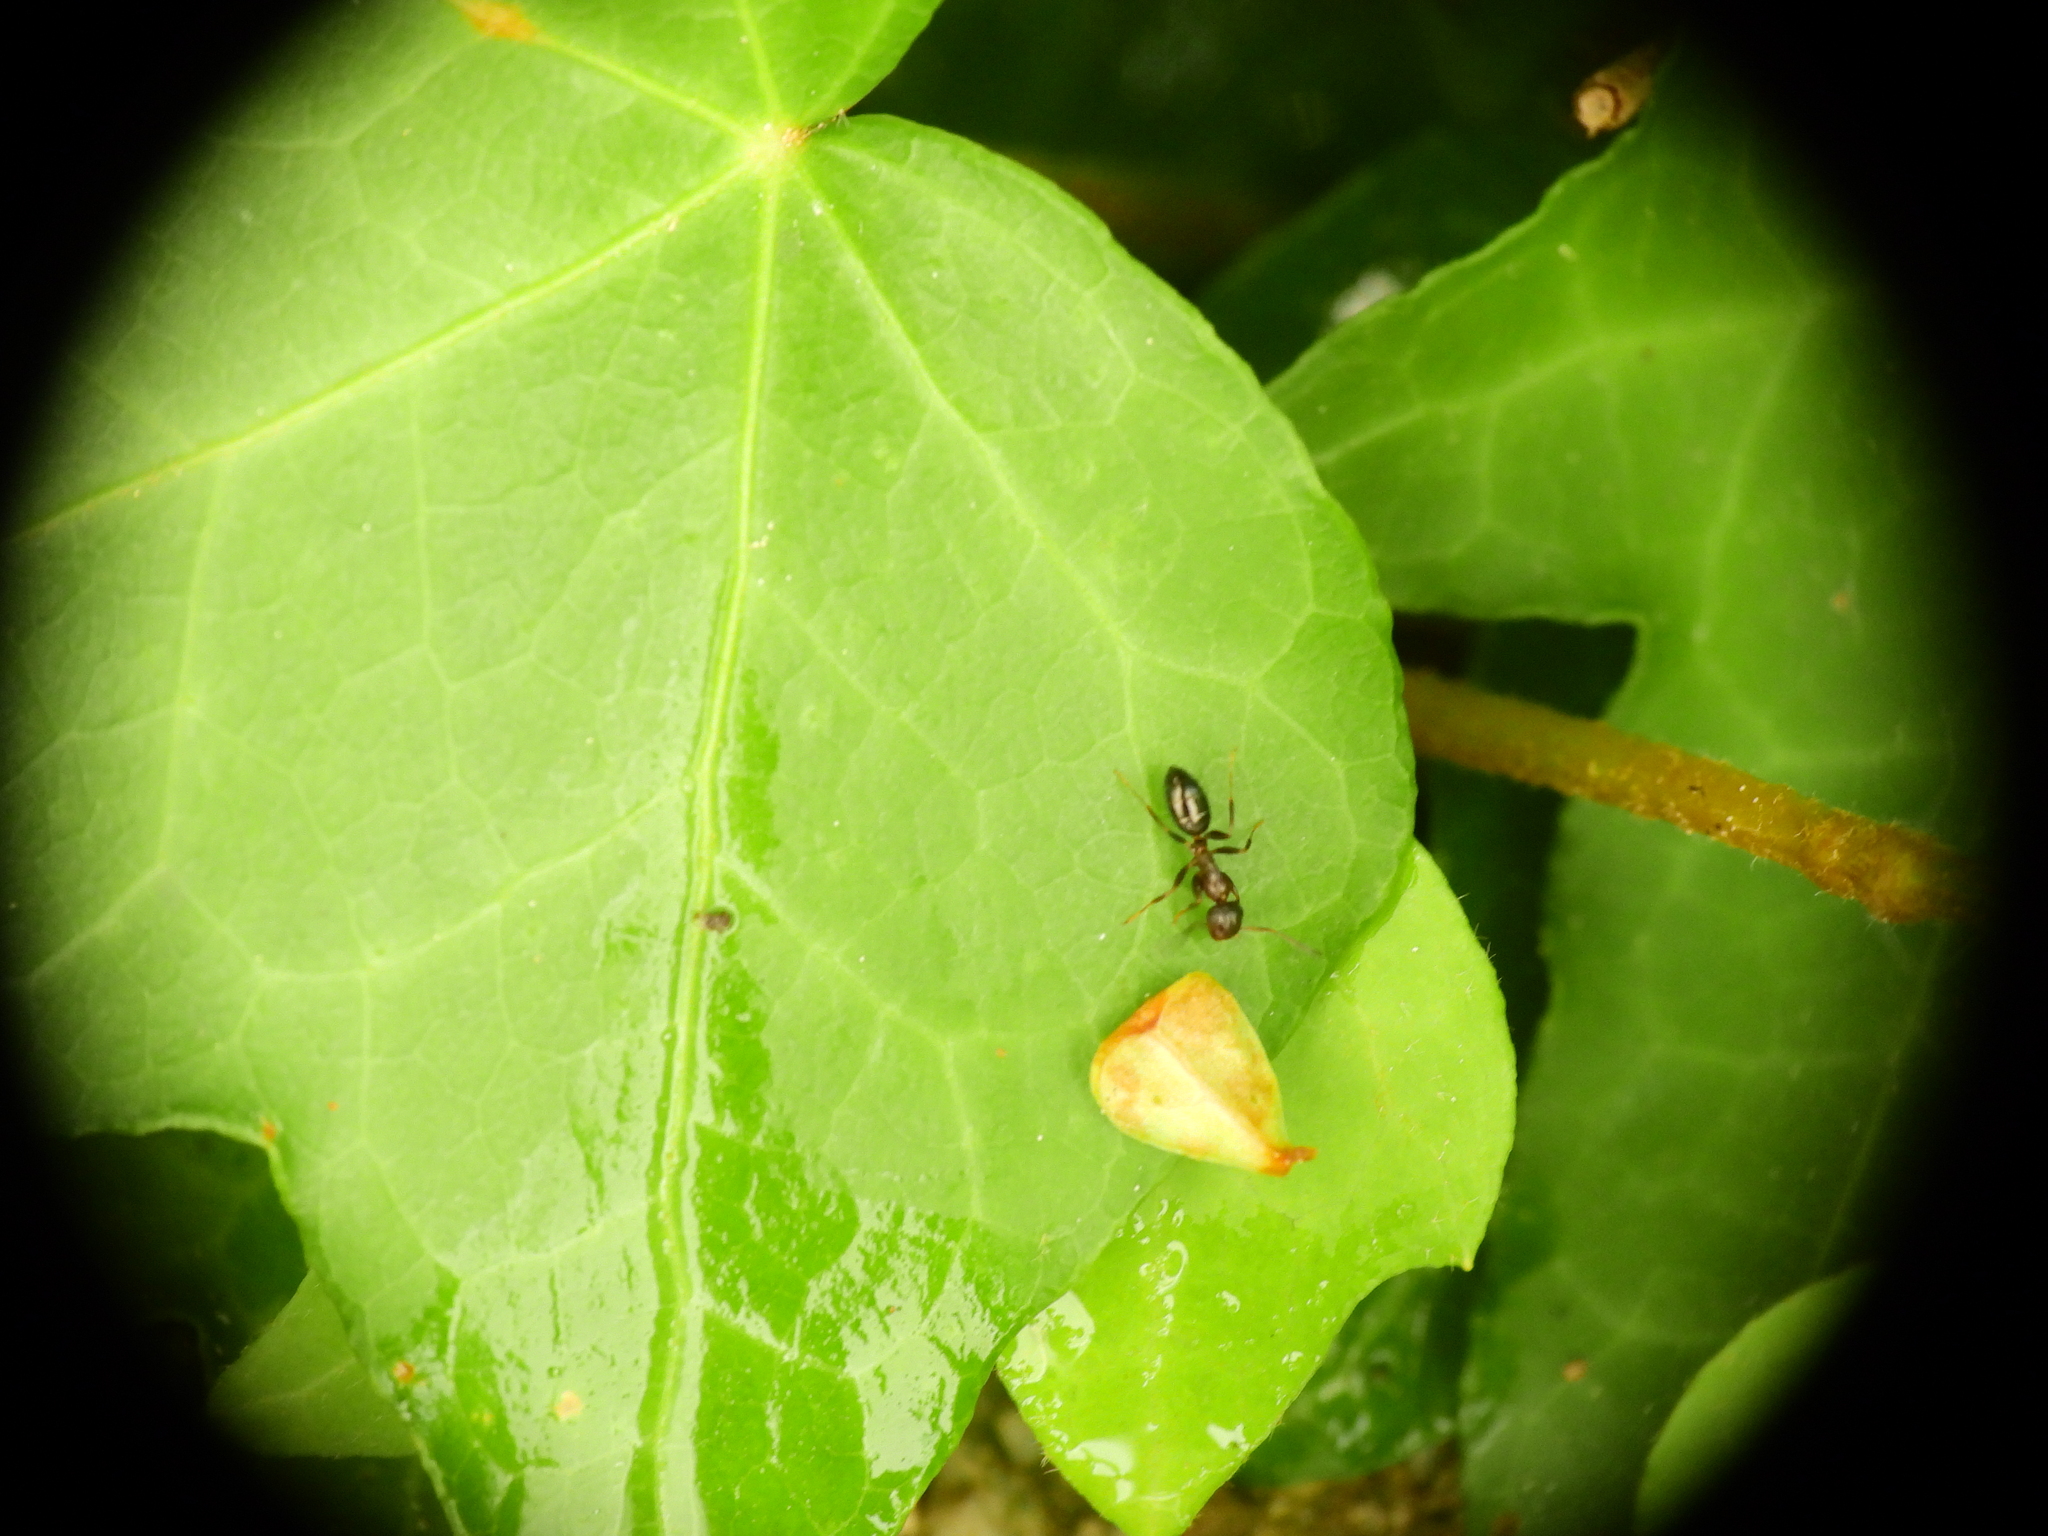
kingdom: Animalia
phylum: Arthropoda
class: Insecta
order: Hymenoptera
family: Formicidae
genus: Camponotus
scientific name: Camponotus truncatus
